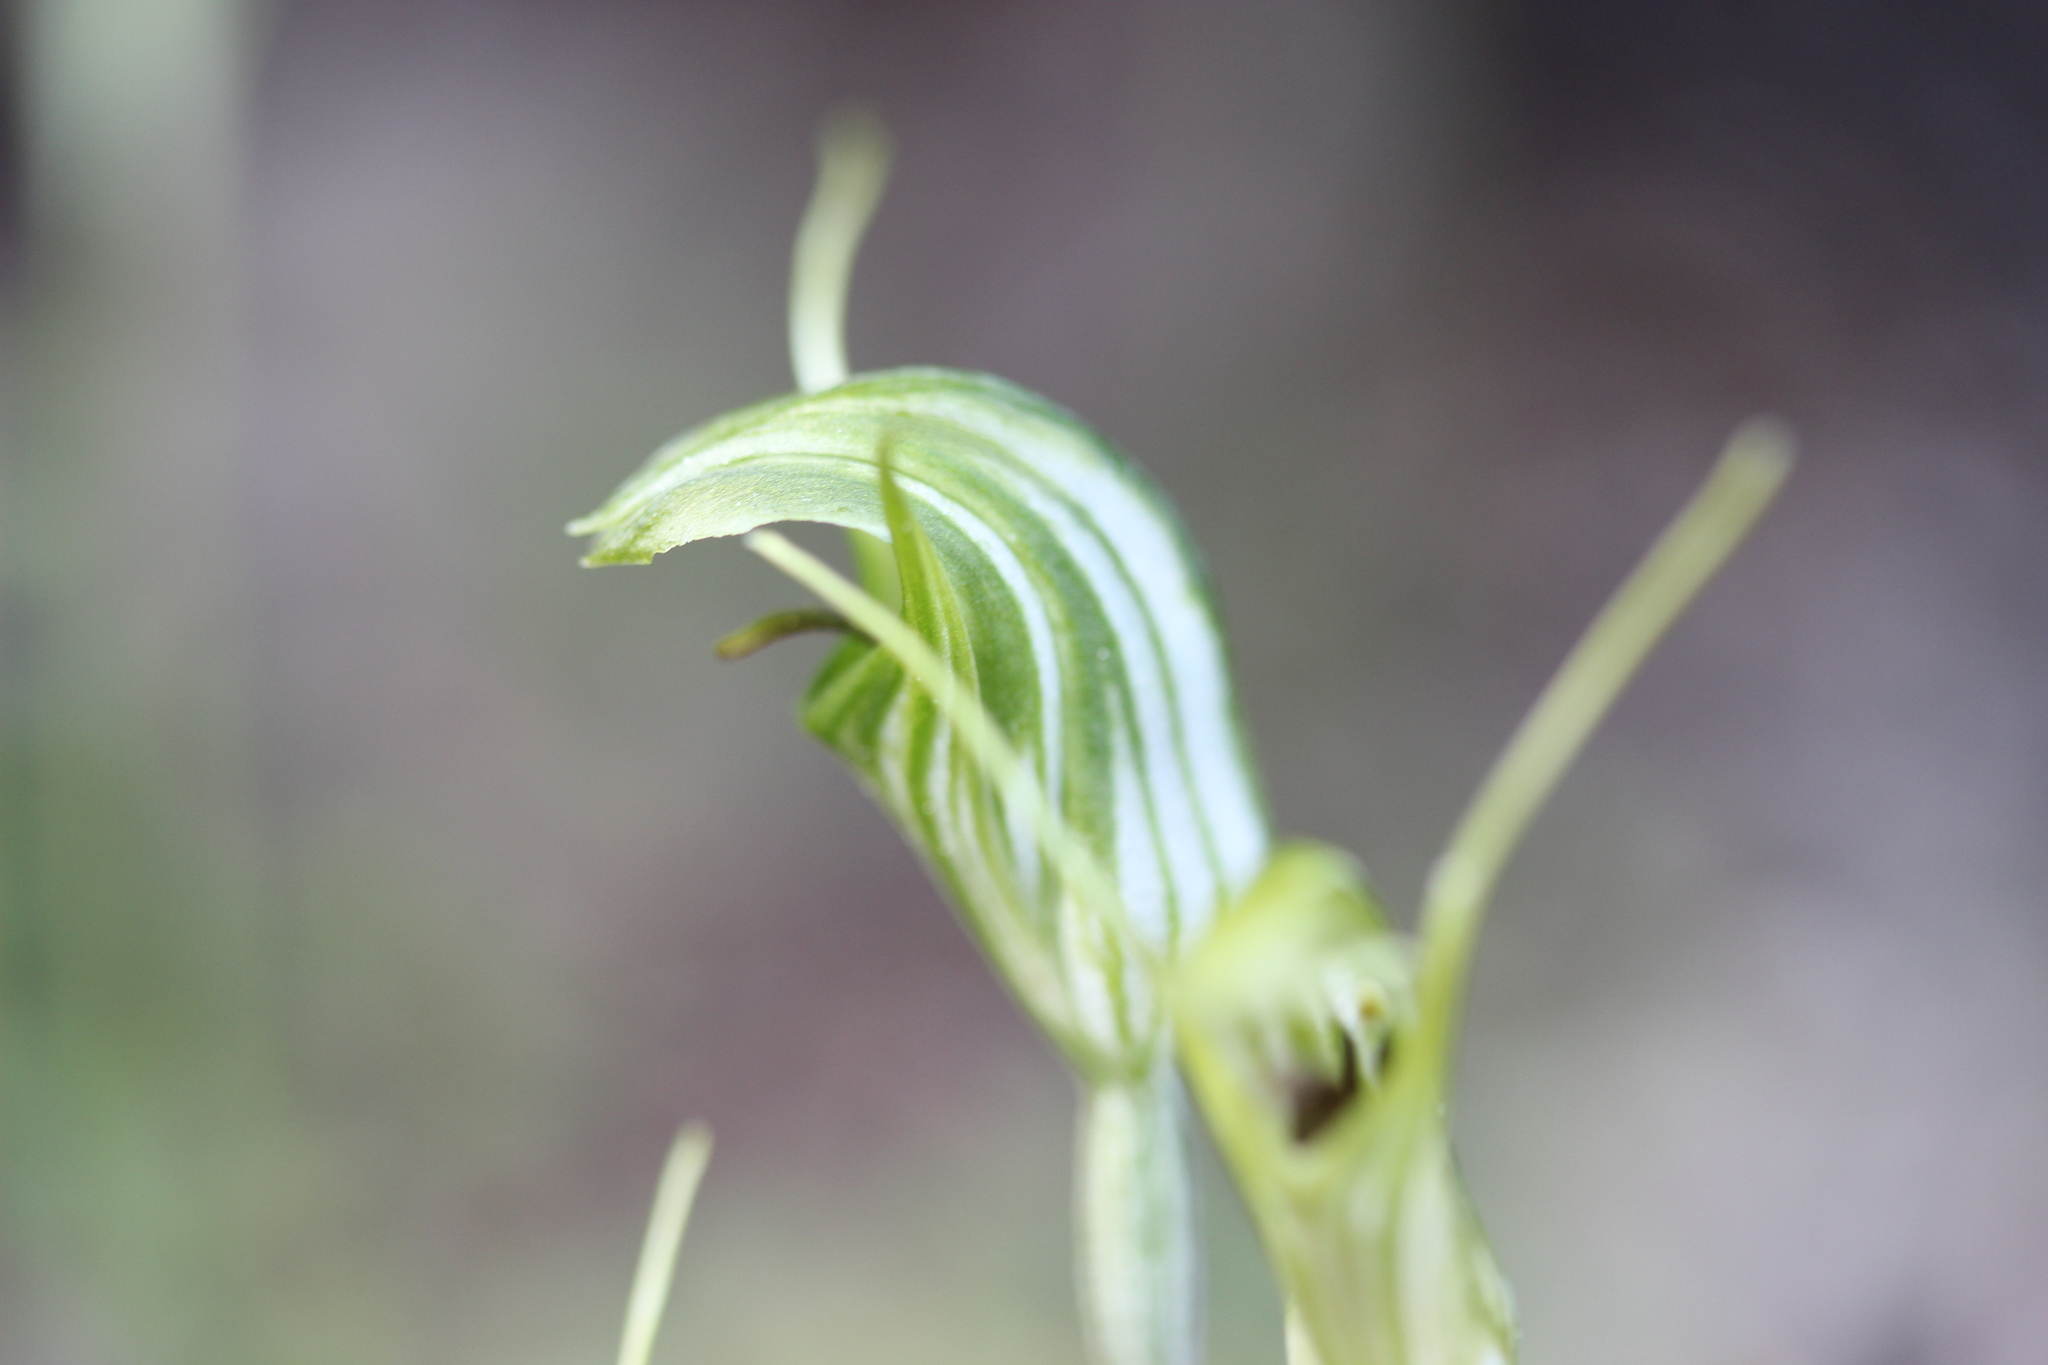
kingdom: Plantae
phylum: Tracheophyta
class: Liliopsida
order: Asparagales
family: Orchidaceae
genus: Pterostylis
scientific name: Pterostylis trullifolia
